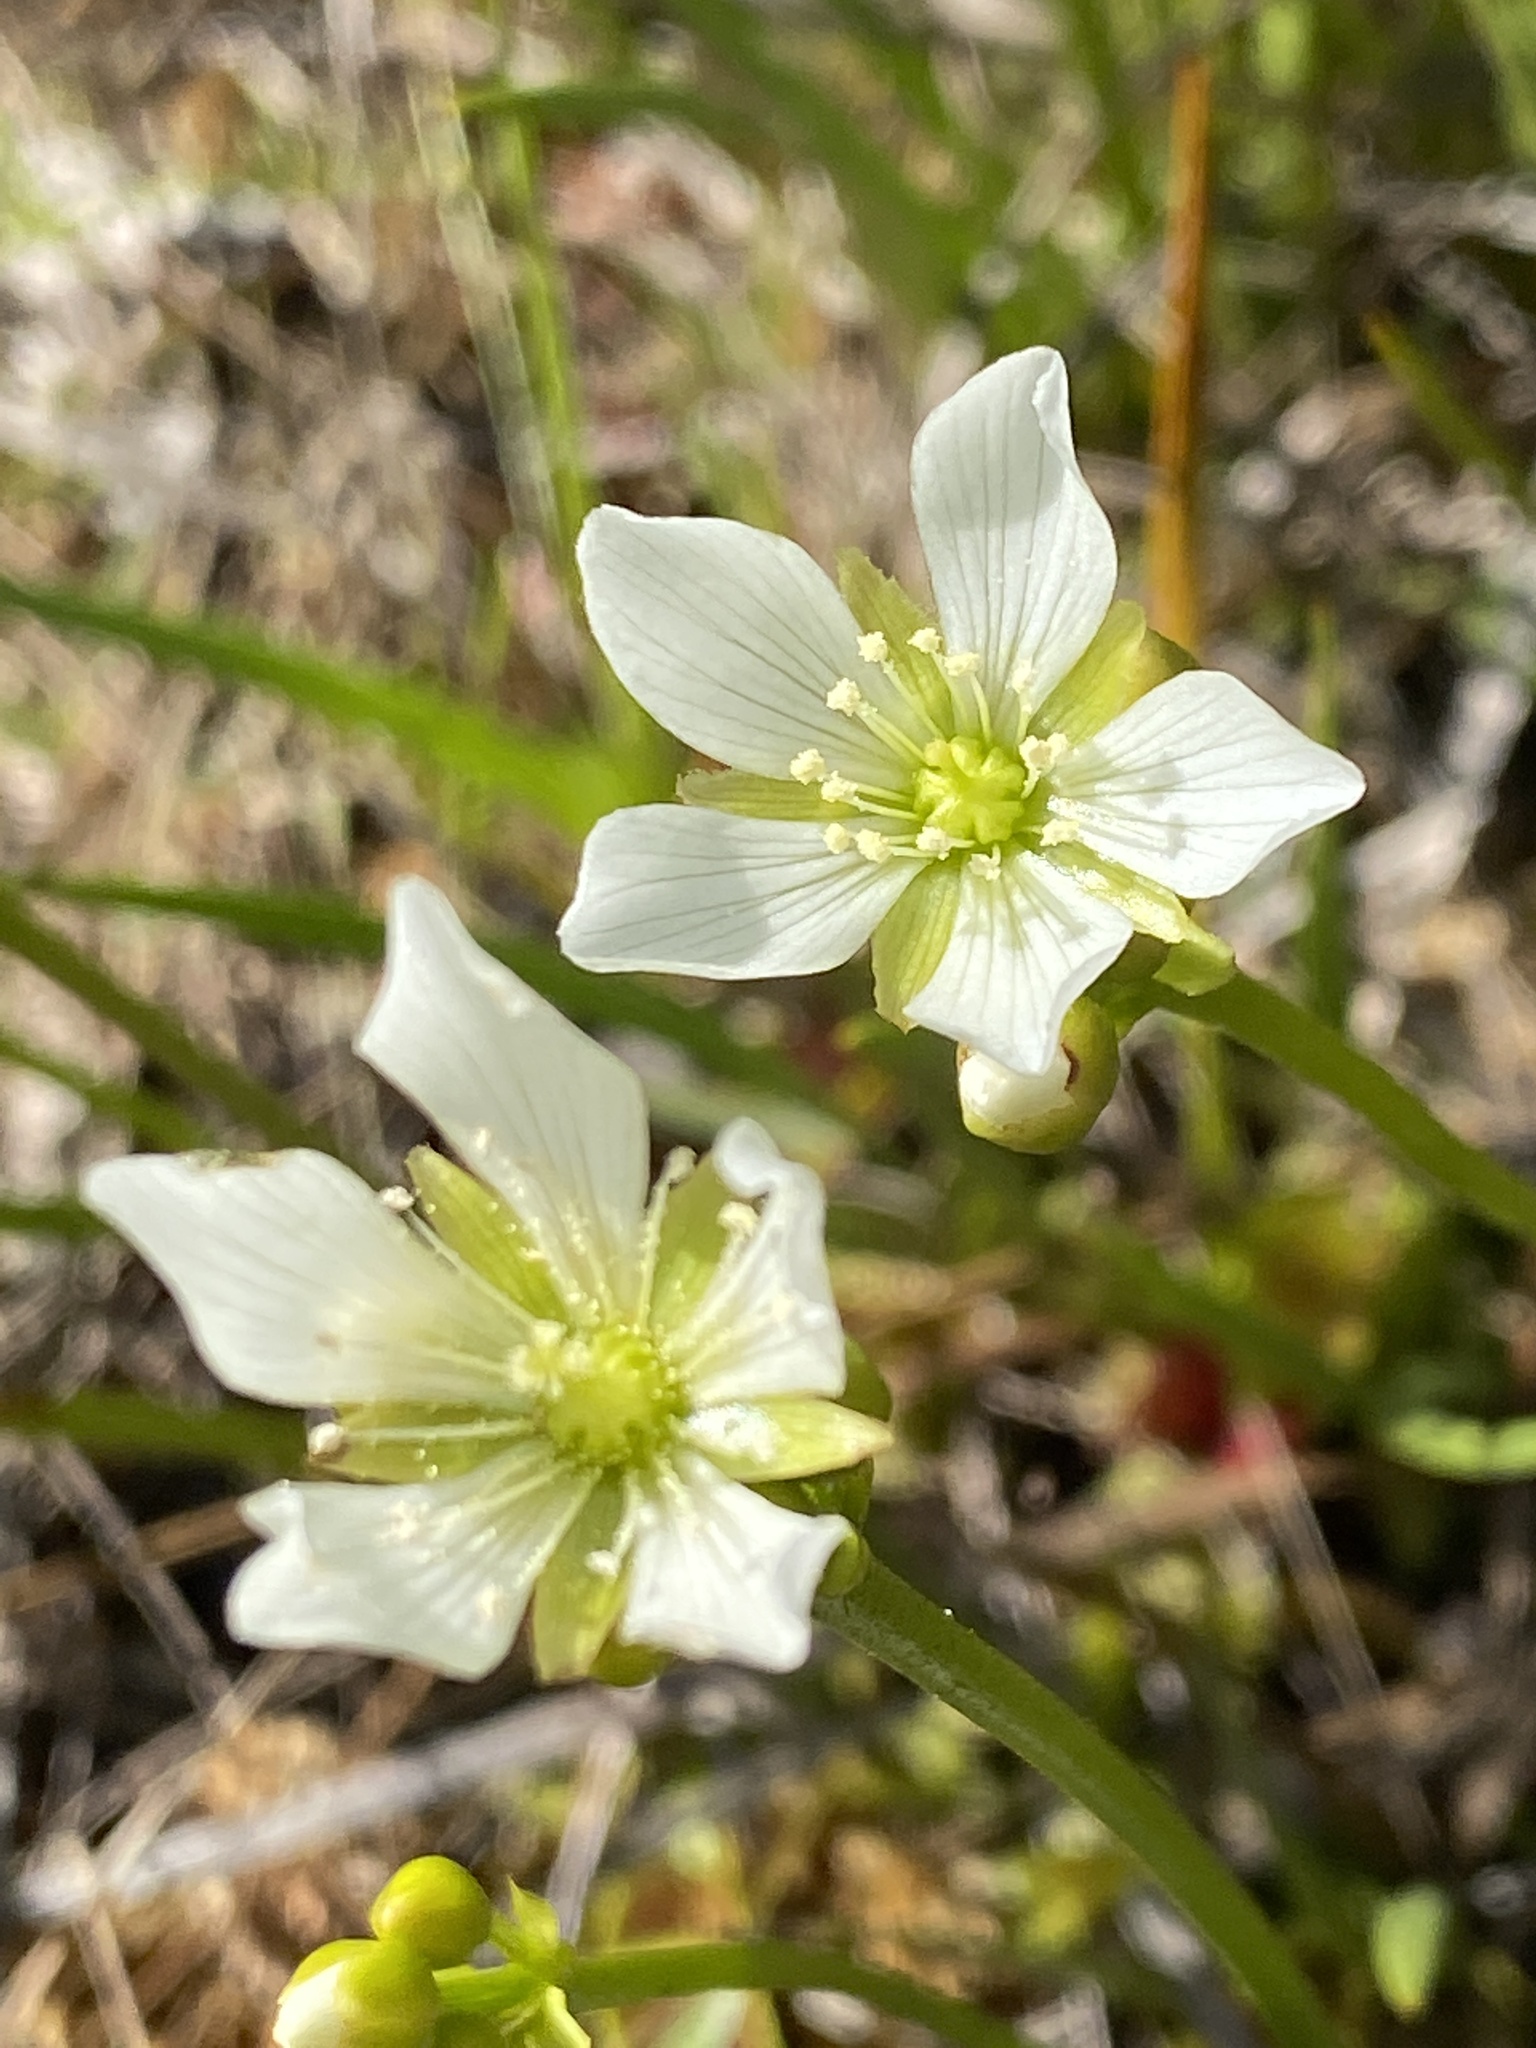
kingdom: Plantae
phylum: Tracheophyta
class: Magnoliopsida
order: Caryophyllales
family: Droseraceae
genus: Dionaea
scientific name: Dionaea muscipula
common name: Venus flytrap
